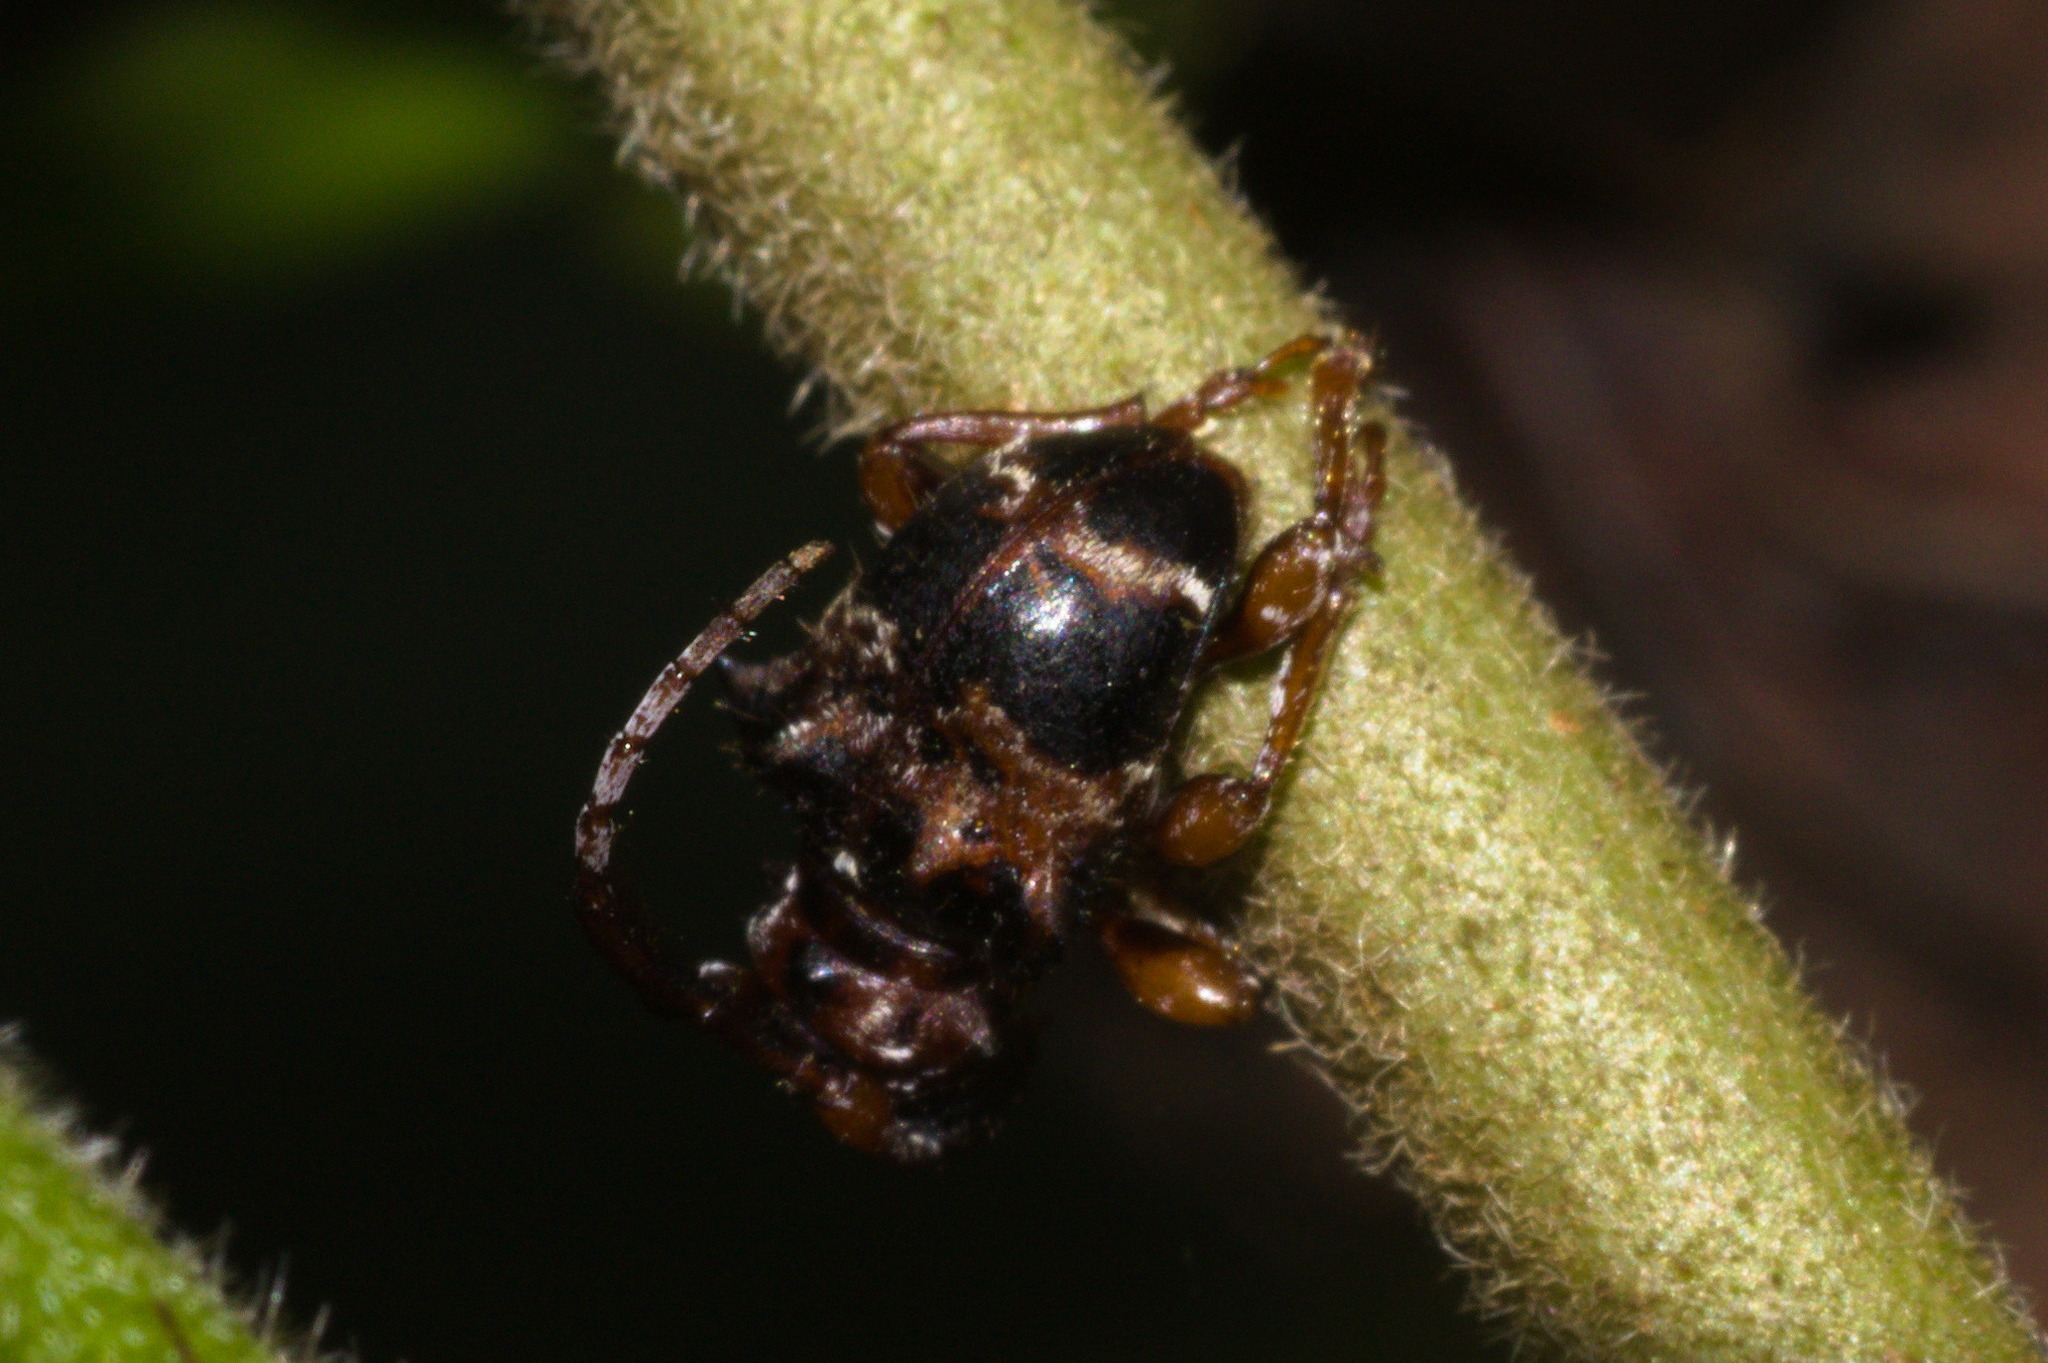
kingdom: Animalia
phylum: Arthropoda
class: Insecta
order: Coleoptera
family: Cerambycidae
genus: Tessarecphora
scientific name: Tessarecphora arachnoides
